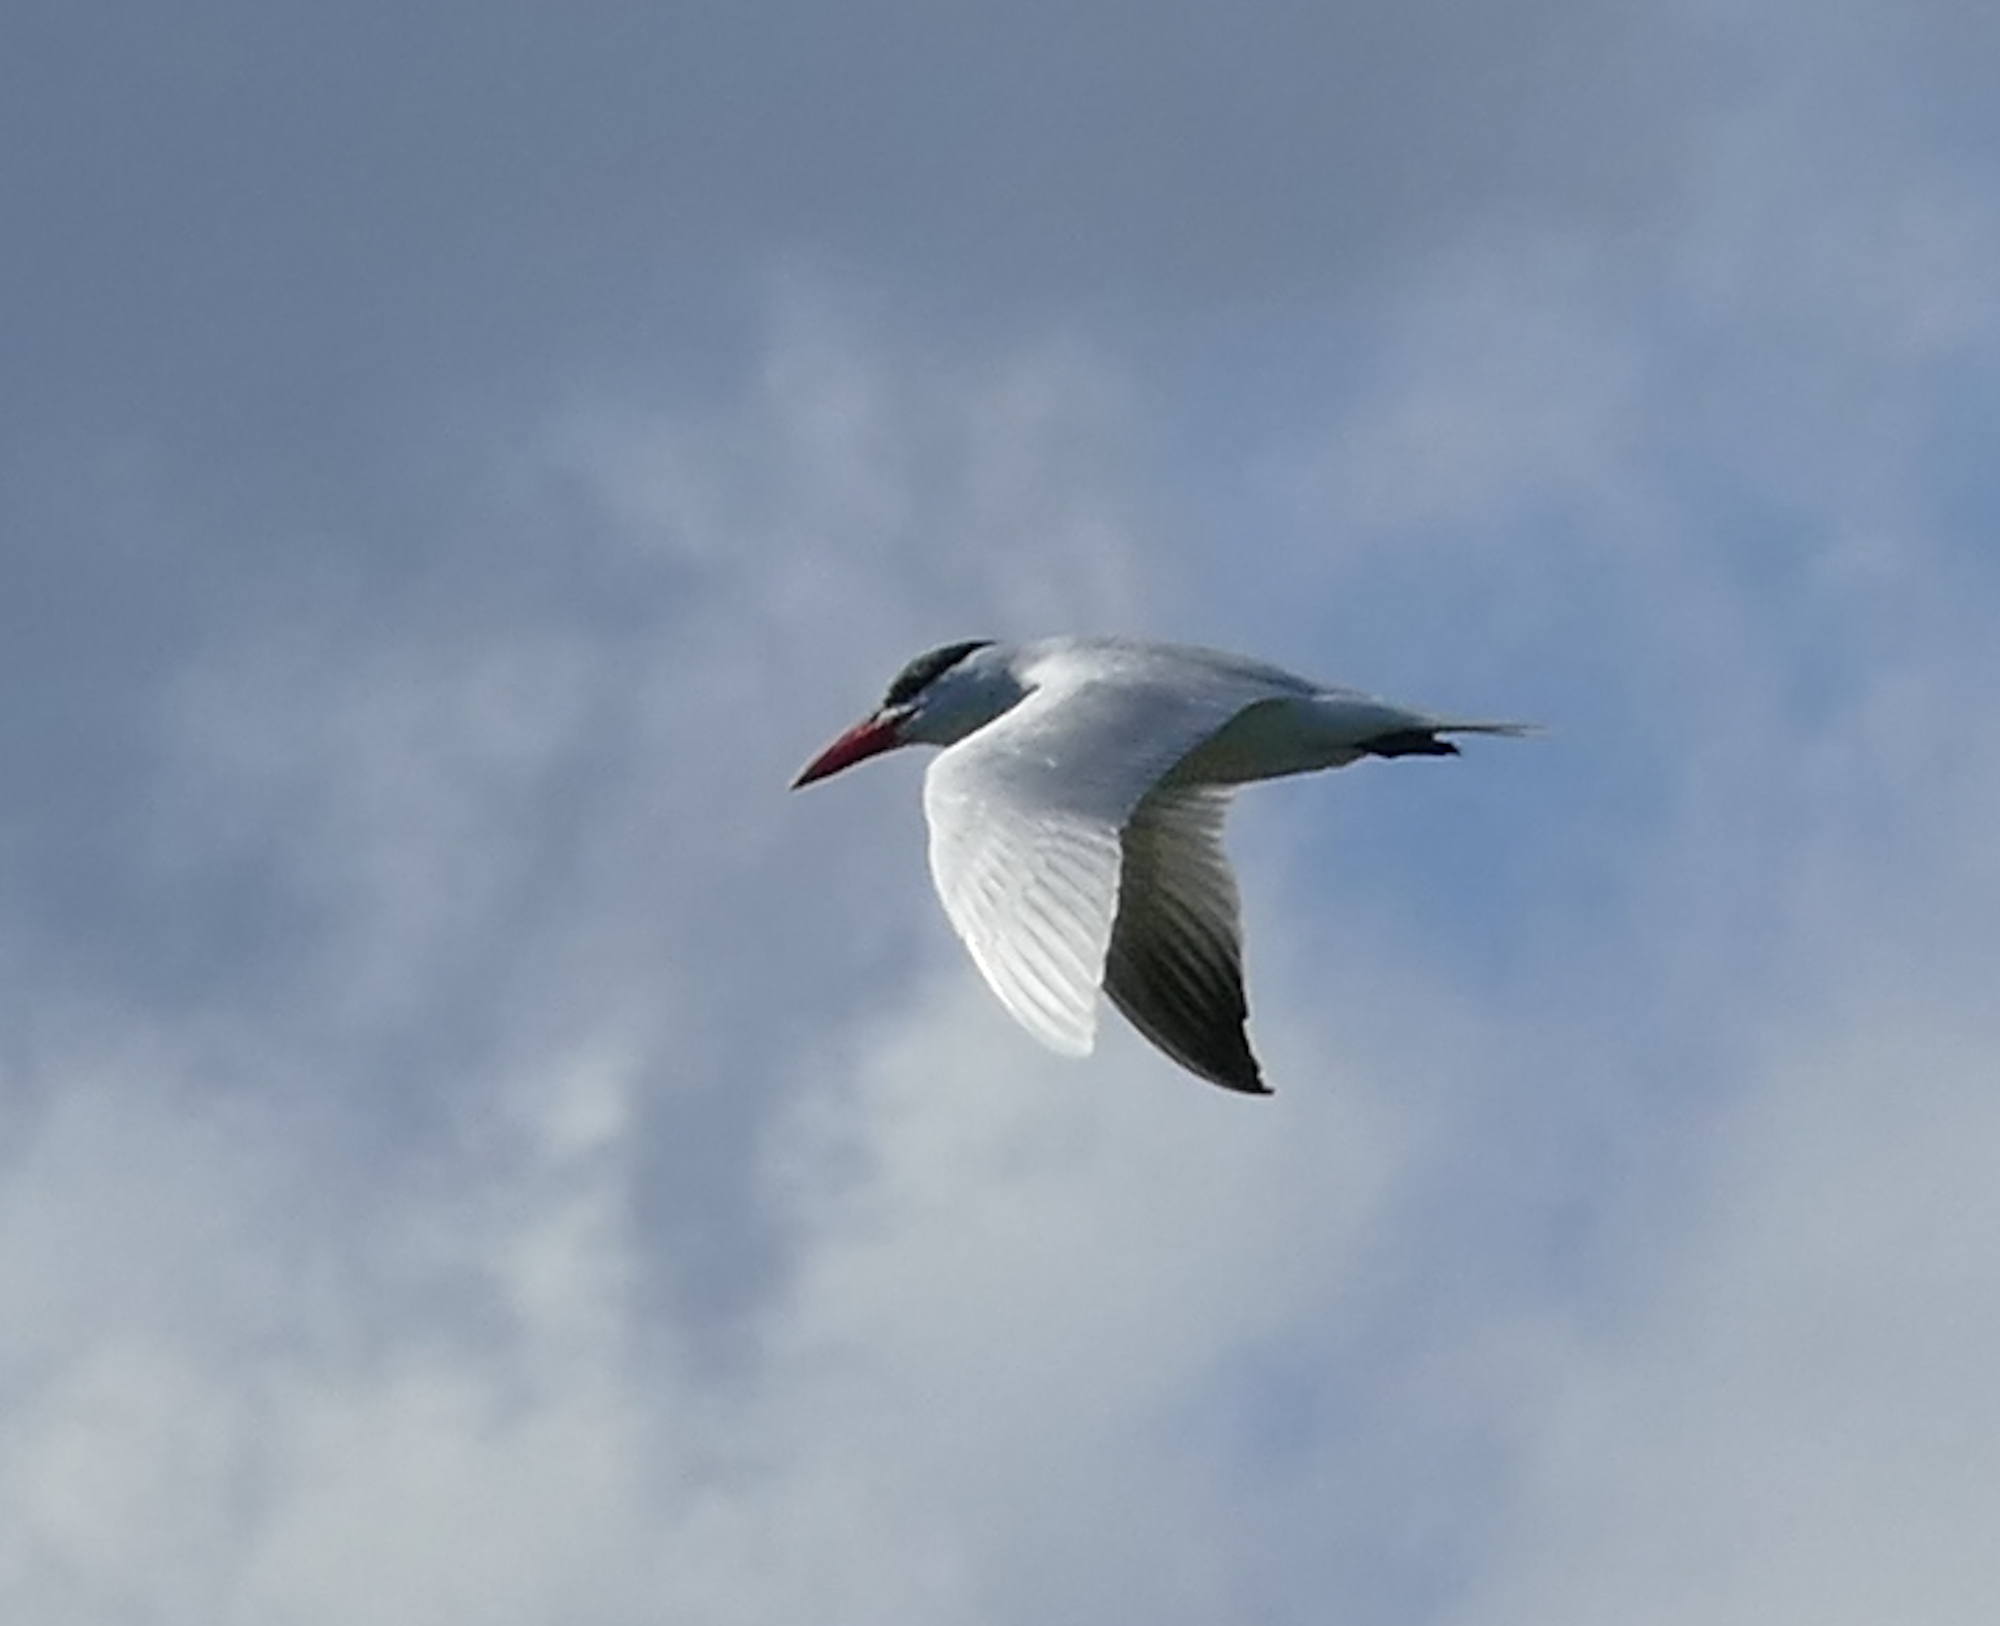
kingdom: Animalia
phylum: Chordata
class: Aves
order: Charadriiformes
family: Laridae
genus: Hydroprogne
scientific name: Hydroprogne caspia
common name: Caspian tern
